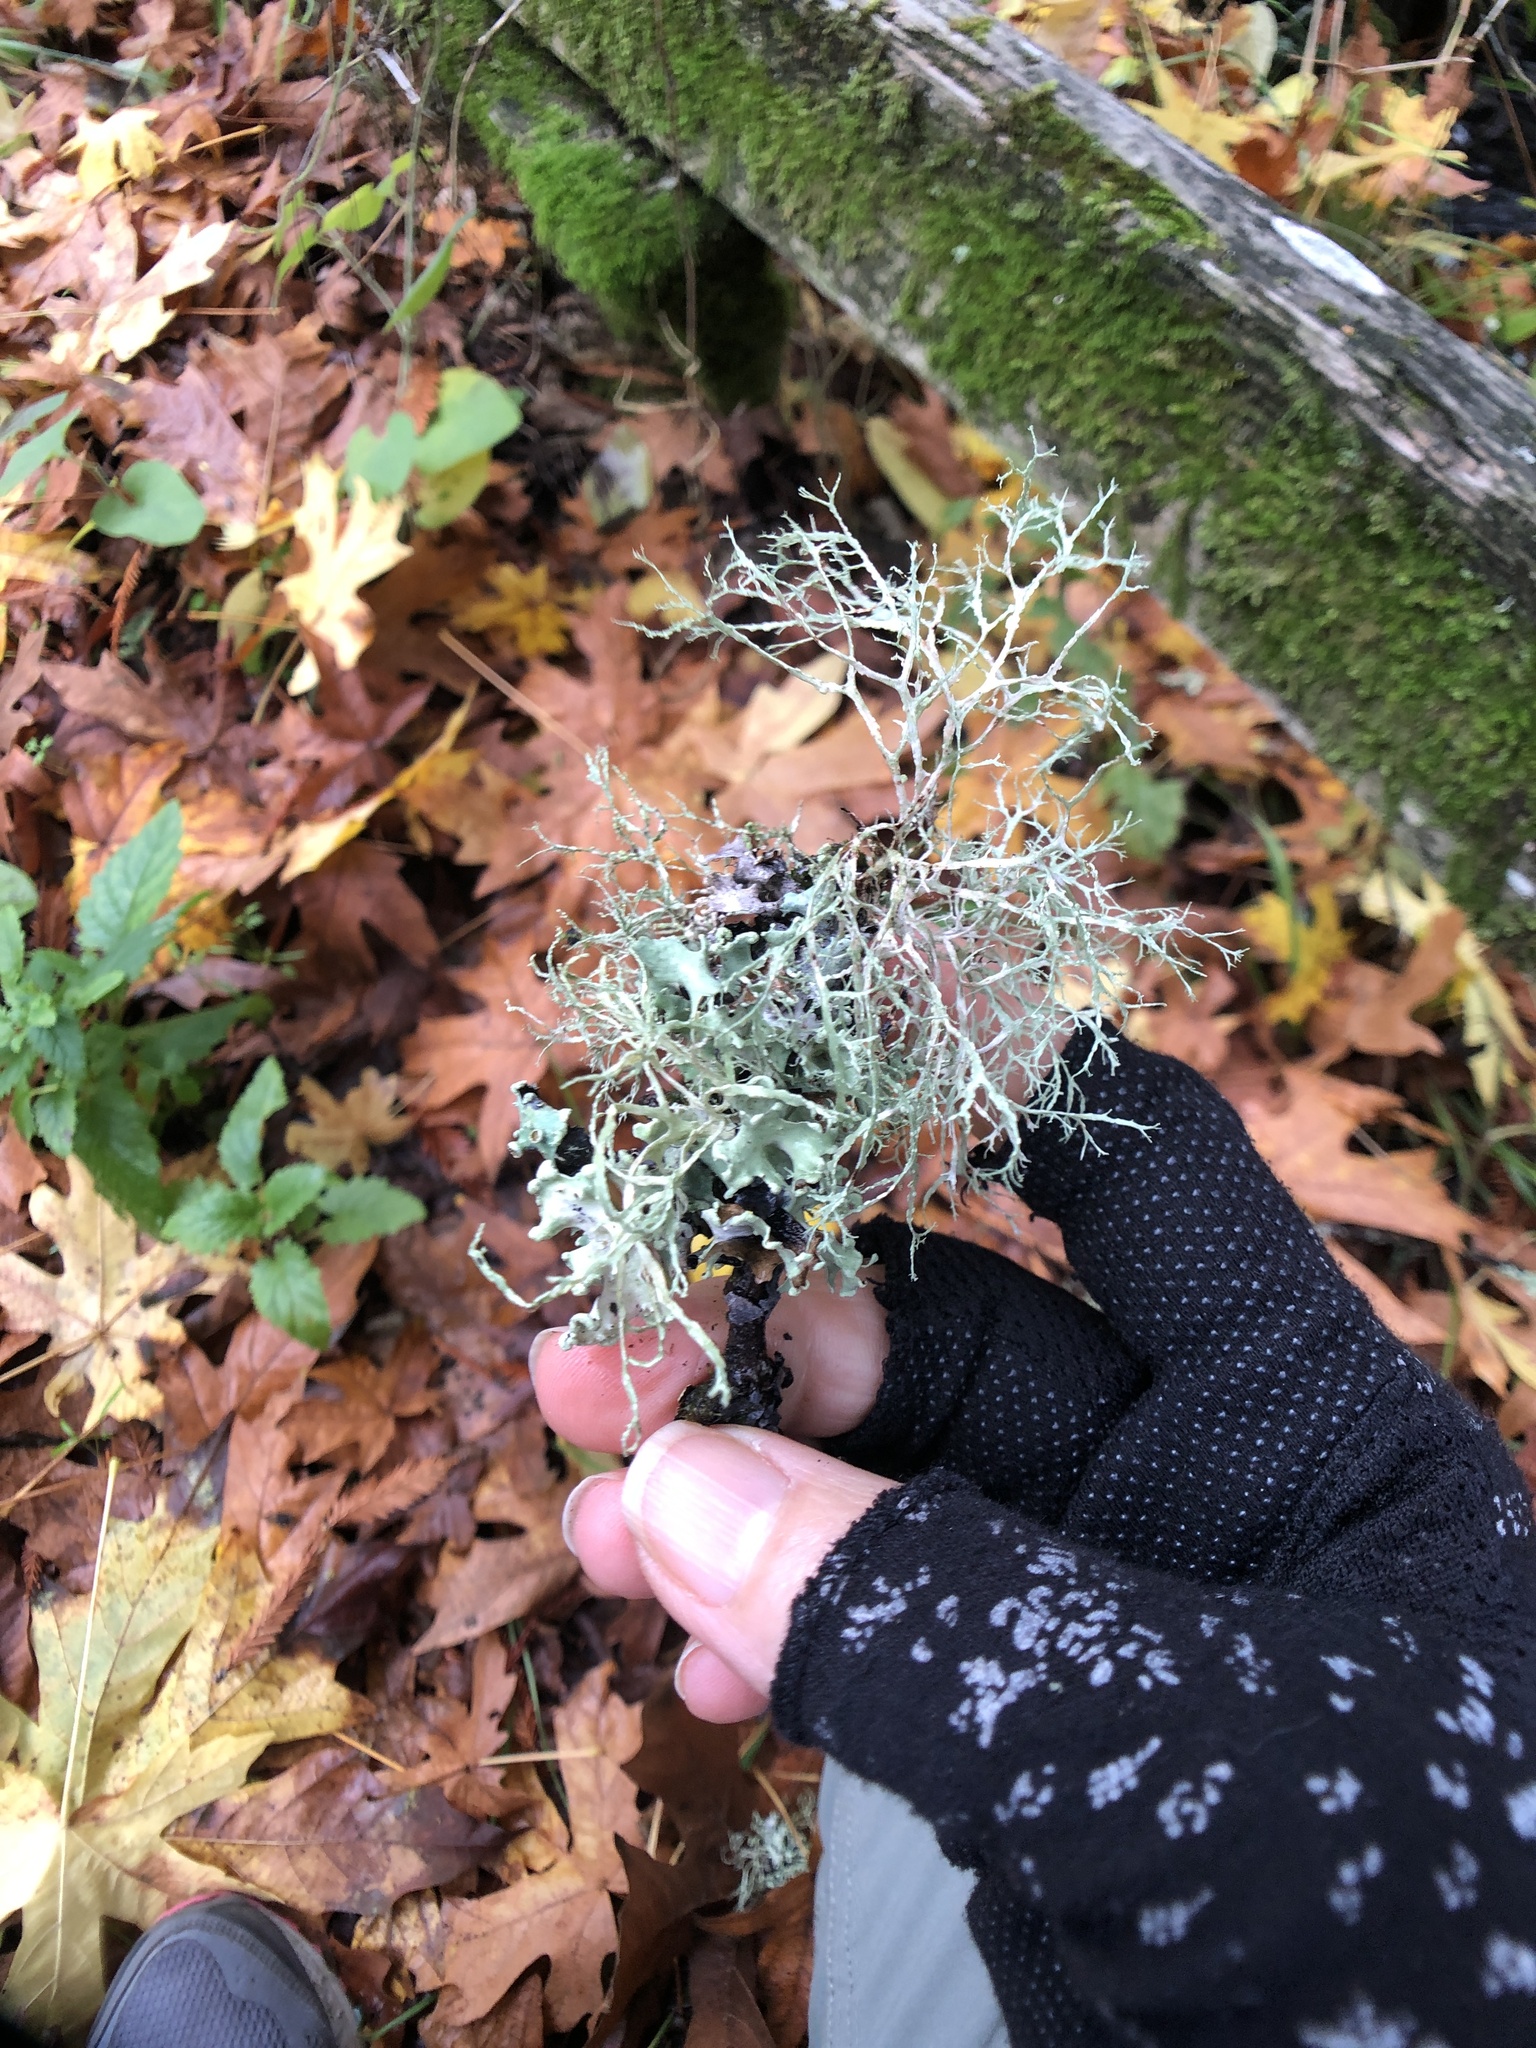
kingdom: Fungi
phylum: Ascomycota
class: Lecanoromycetes
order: Lecanorales
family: Ramalinaceae
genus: Ramalina
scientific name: Ramalina farinacea
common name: Farinose cartilage lichen
